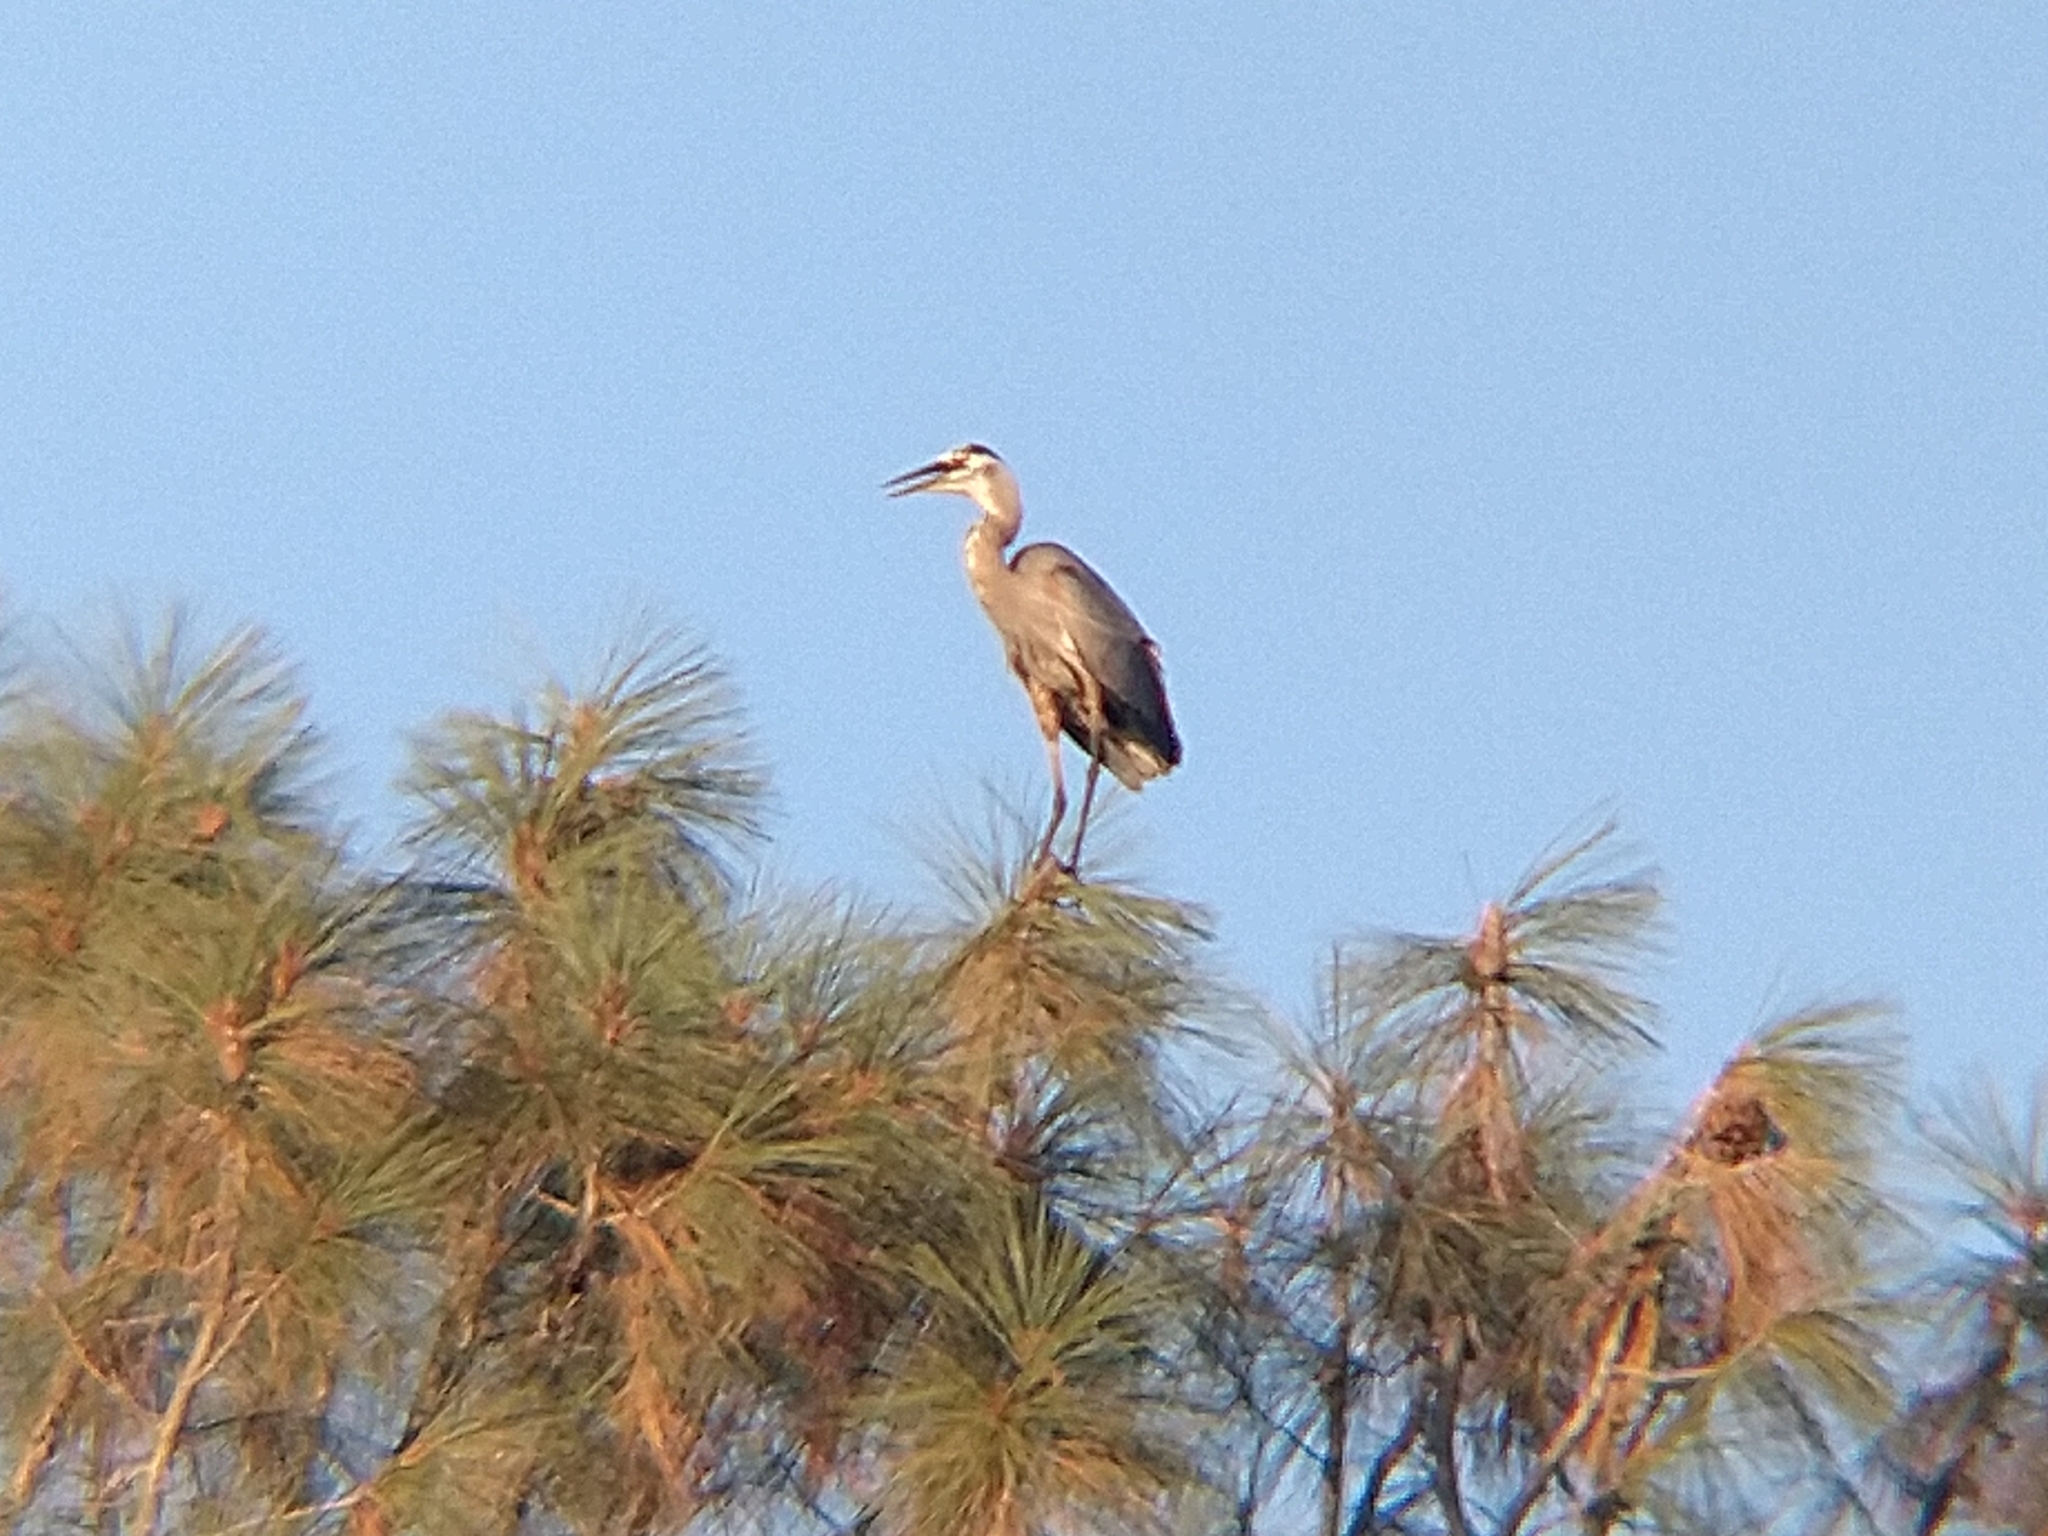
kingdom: Animalia
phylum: Chordata
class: Aves
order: Pelecaniformes
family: Ardeidae
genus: Ardea
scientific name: Ardea herodias
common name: Great blue heron
